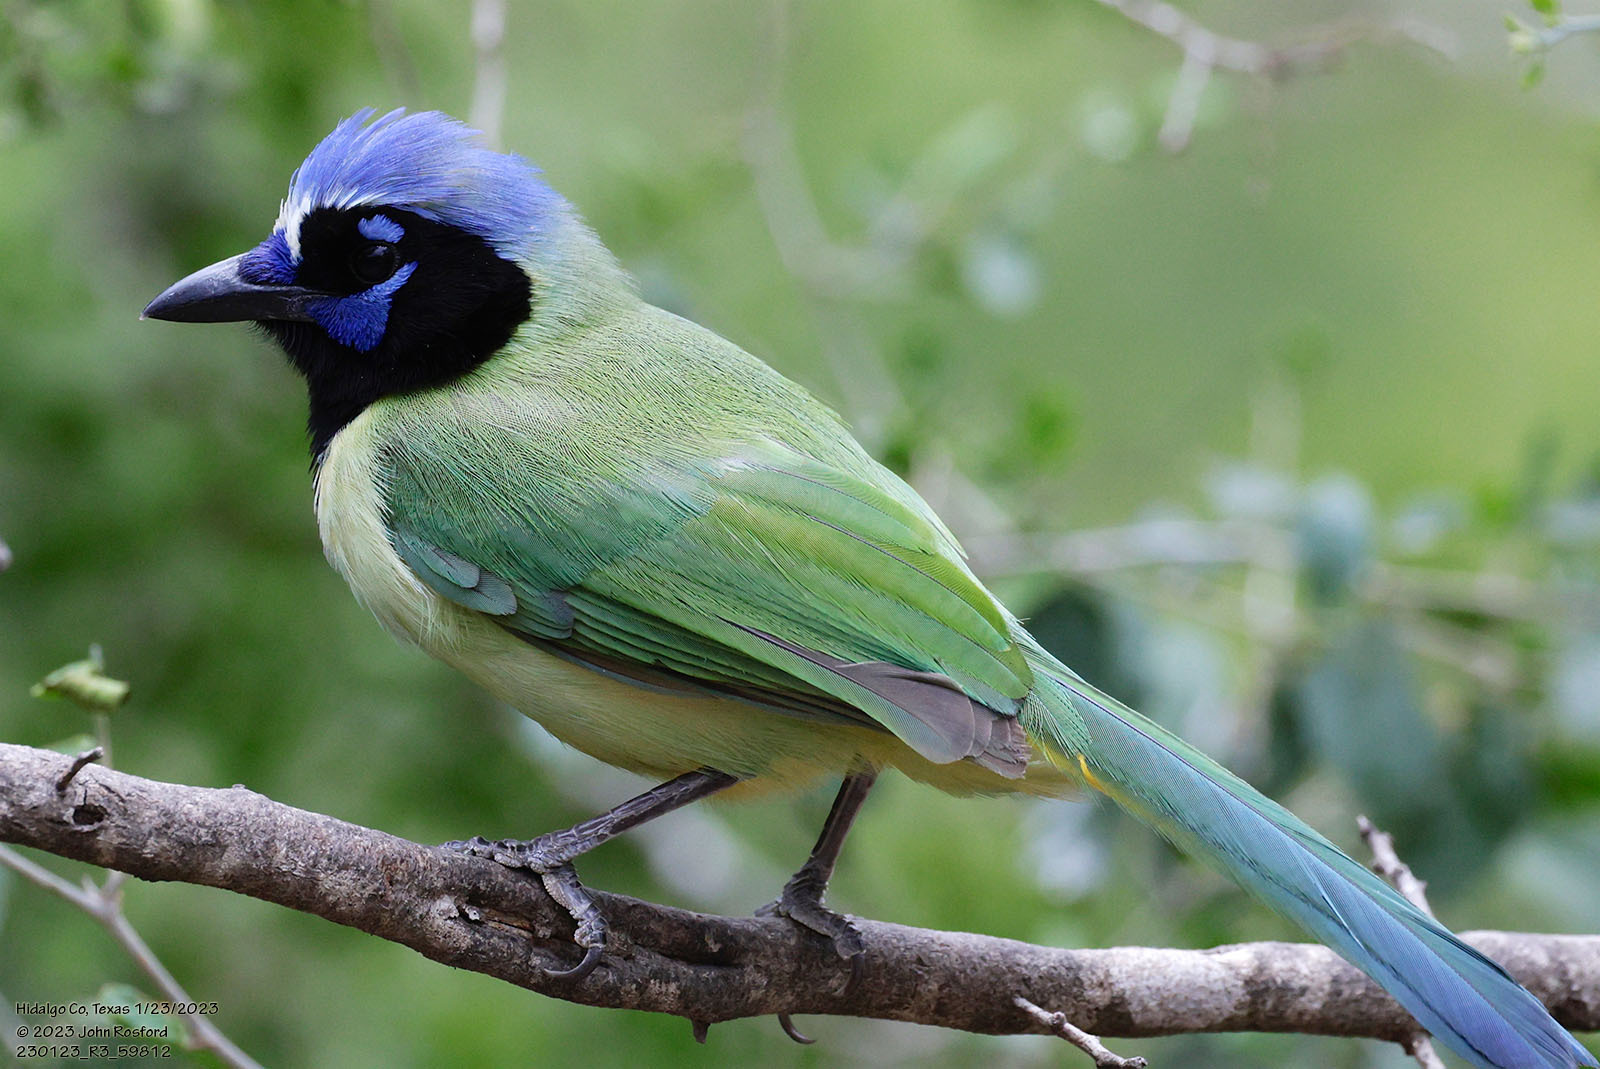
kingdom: Animalia
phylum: Chordata
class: Aves
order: Passeriformes
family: Corvidae
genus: Cyanocorax
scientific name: Cyanocorax yncas
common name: Green jay
